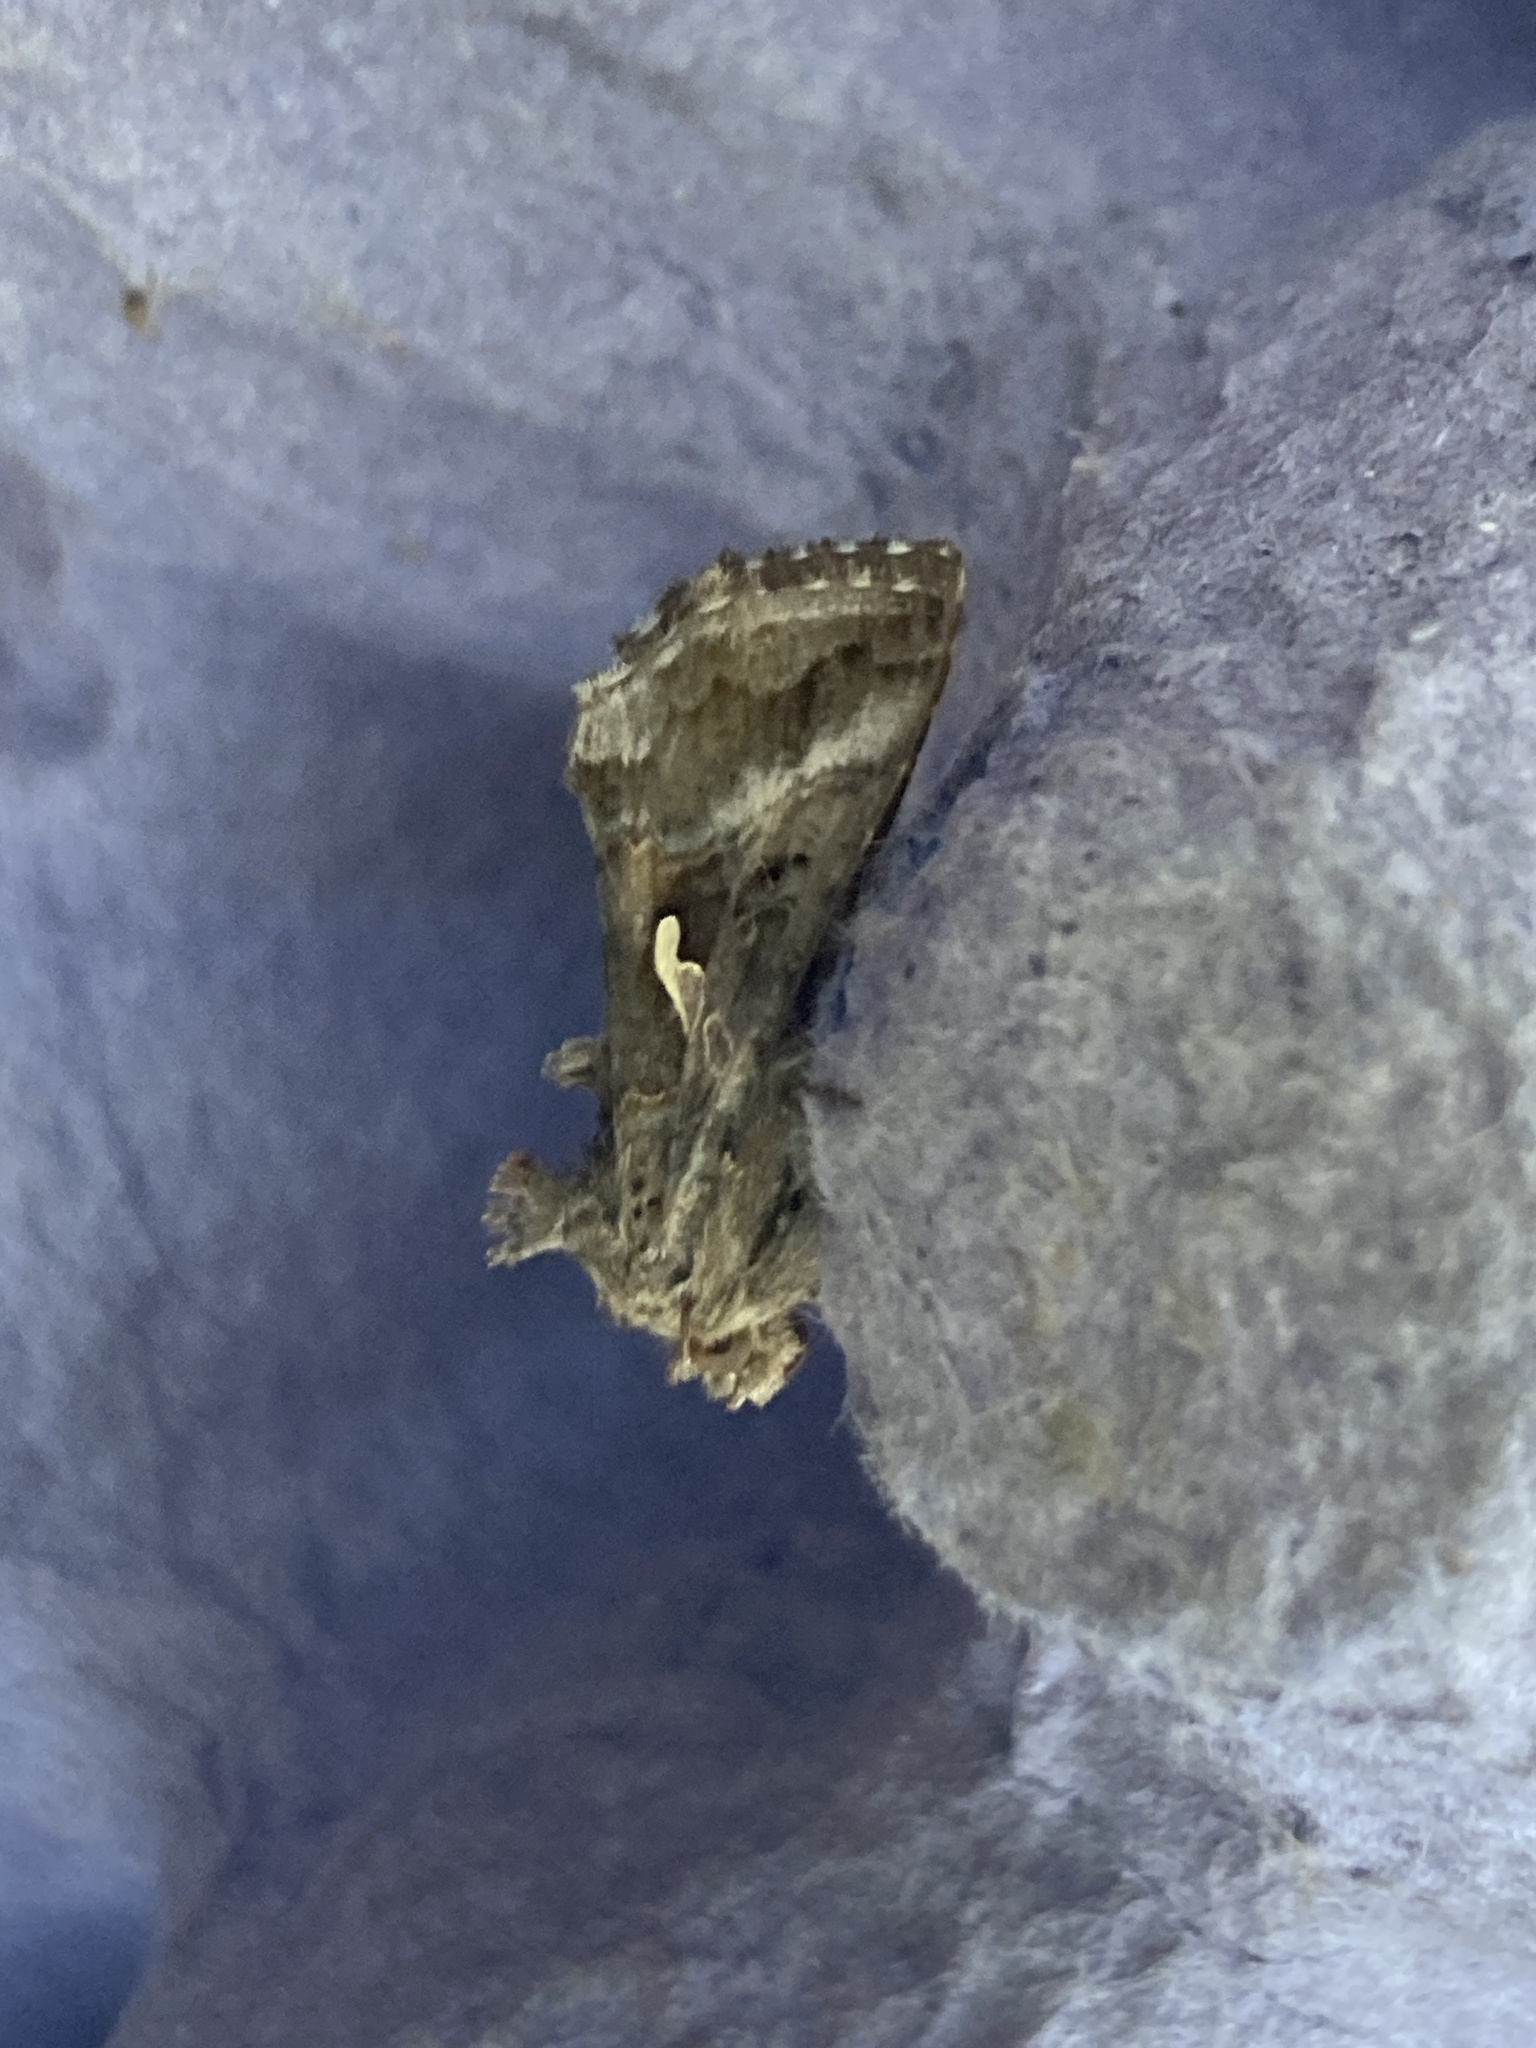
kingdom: Animalia
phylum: Arthropoda
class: Insecta
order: Lepidoptera
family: Noctuidae
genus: Autographa
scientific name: Autographa gamma
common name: Silver y
